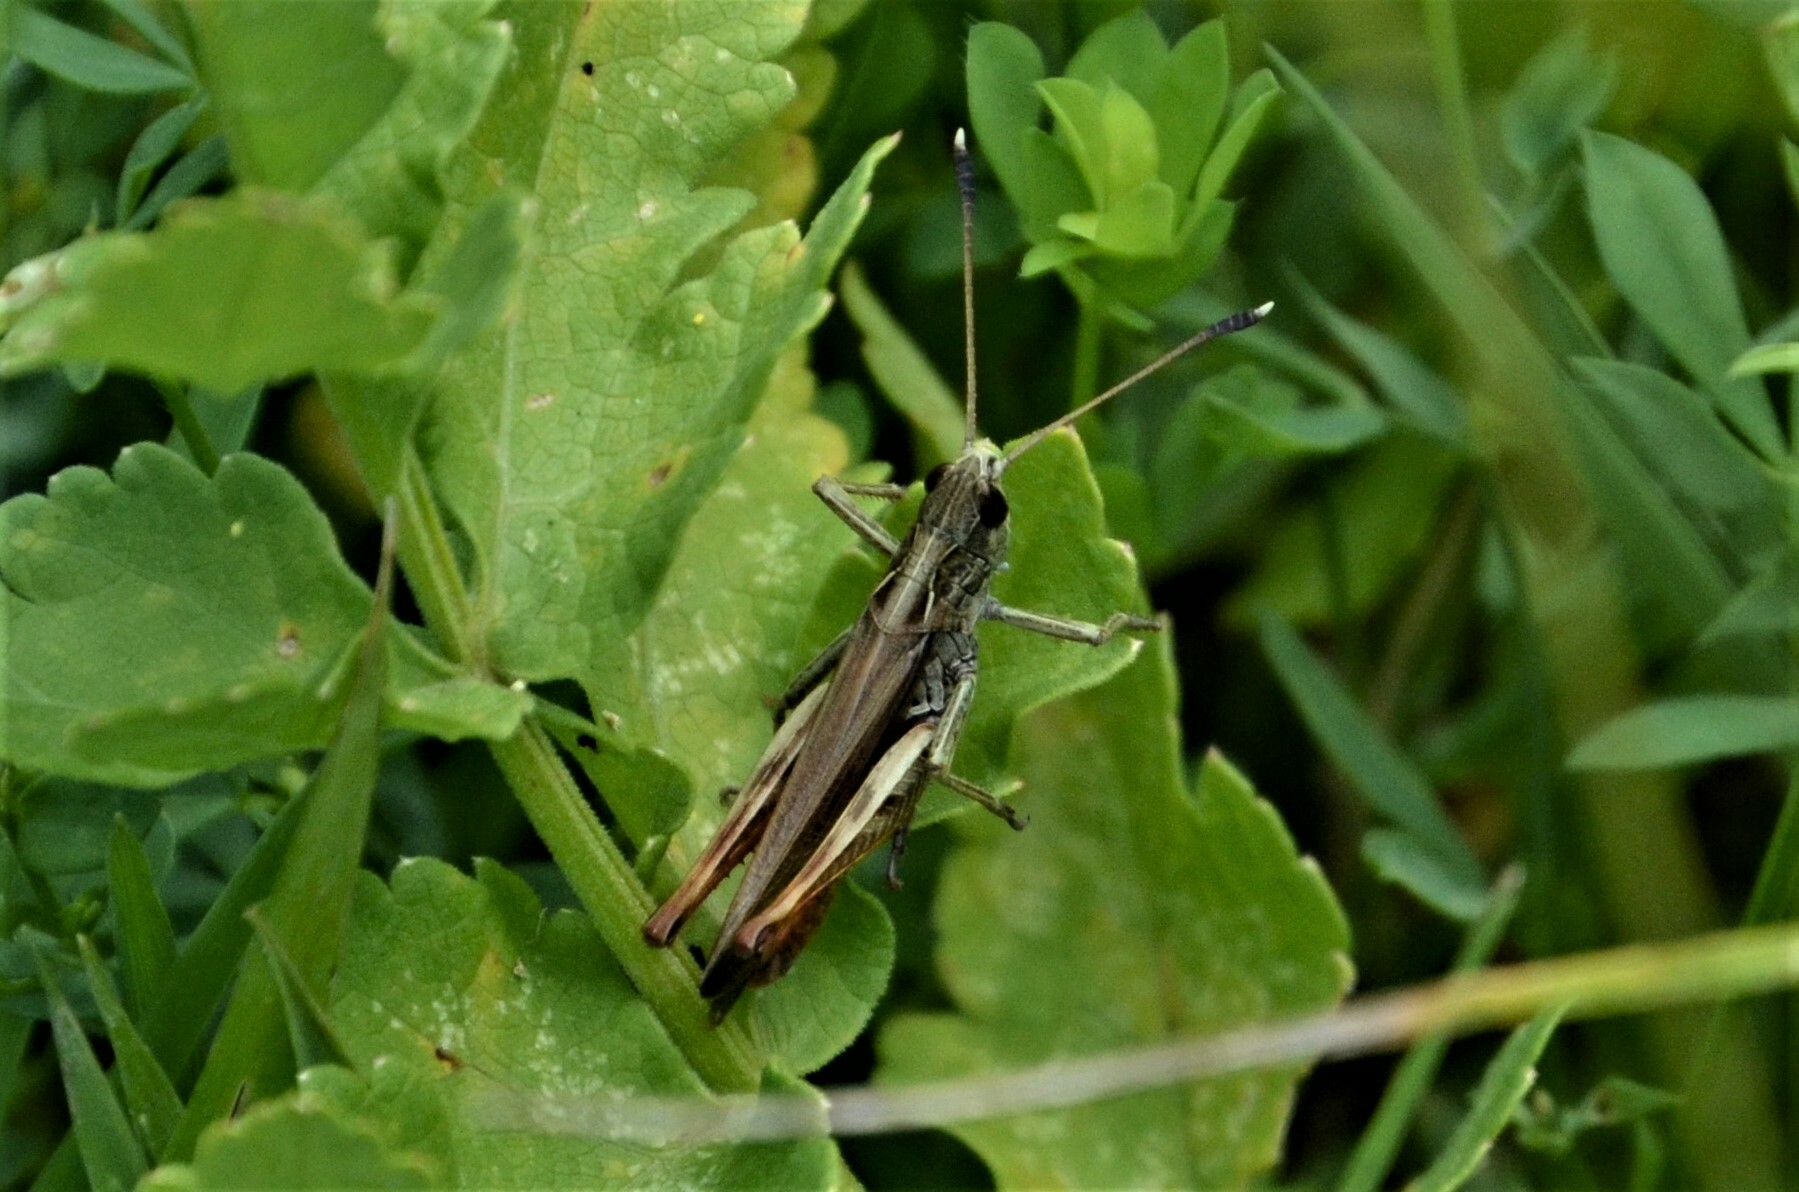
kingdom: Animalia
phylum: Arthropoda
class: Insecta
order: Orthoptera
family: Acrididae
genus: Gomphocerippus
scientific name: Gomphocerippus rufus
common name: Rufous grasshopper
